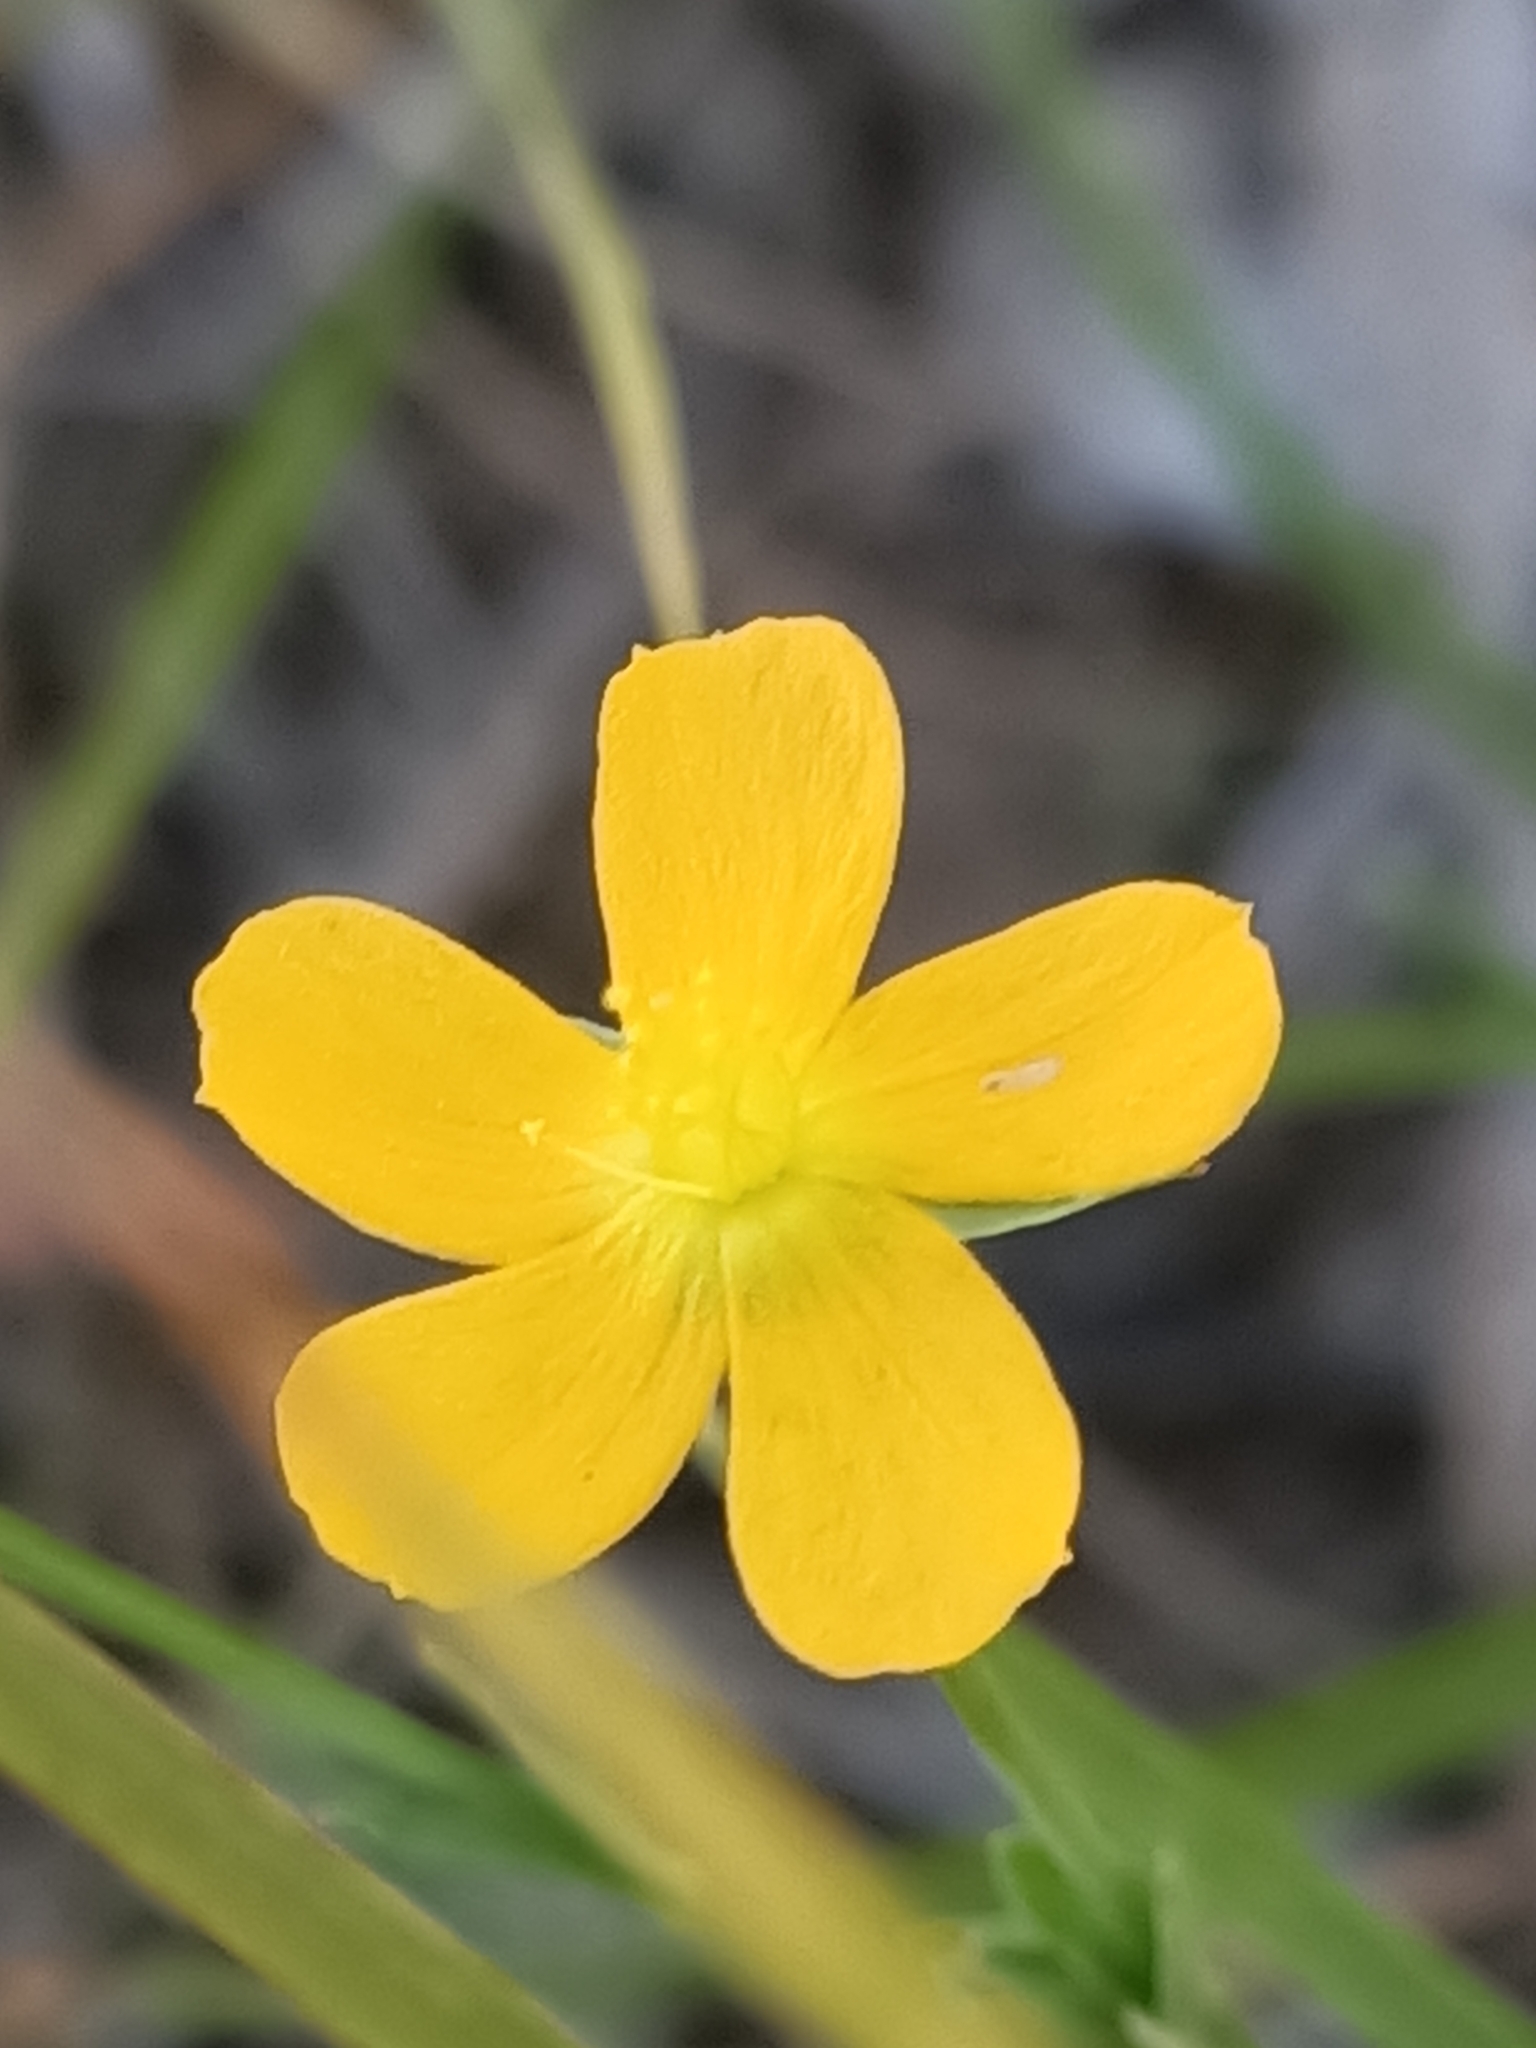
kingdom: Plantae
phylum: Tracheophyta
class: Magnoliopsida
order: Malpighiales
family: Hypericaceae
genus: Hypericum
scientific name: Hypericum gramineum
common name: Grassy st. johnswort
